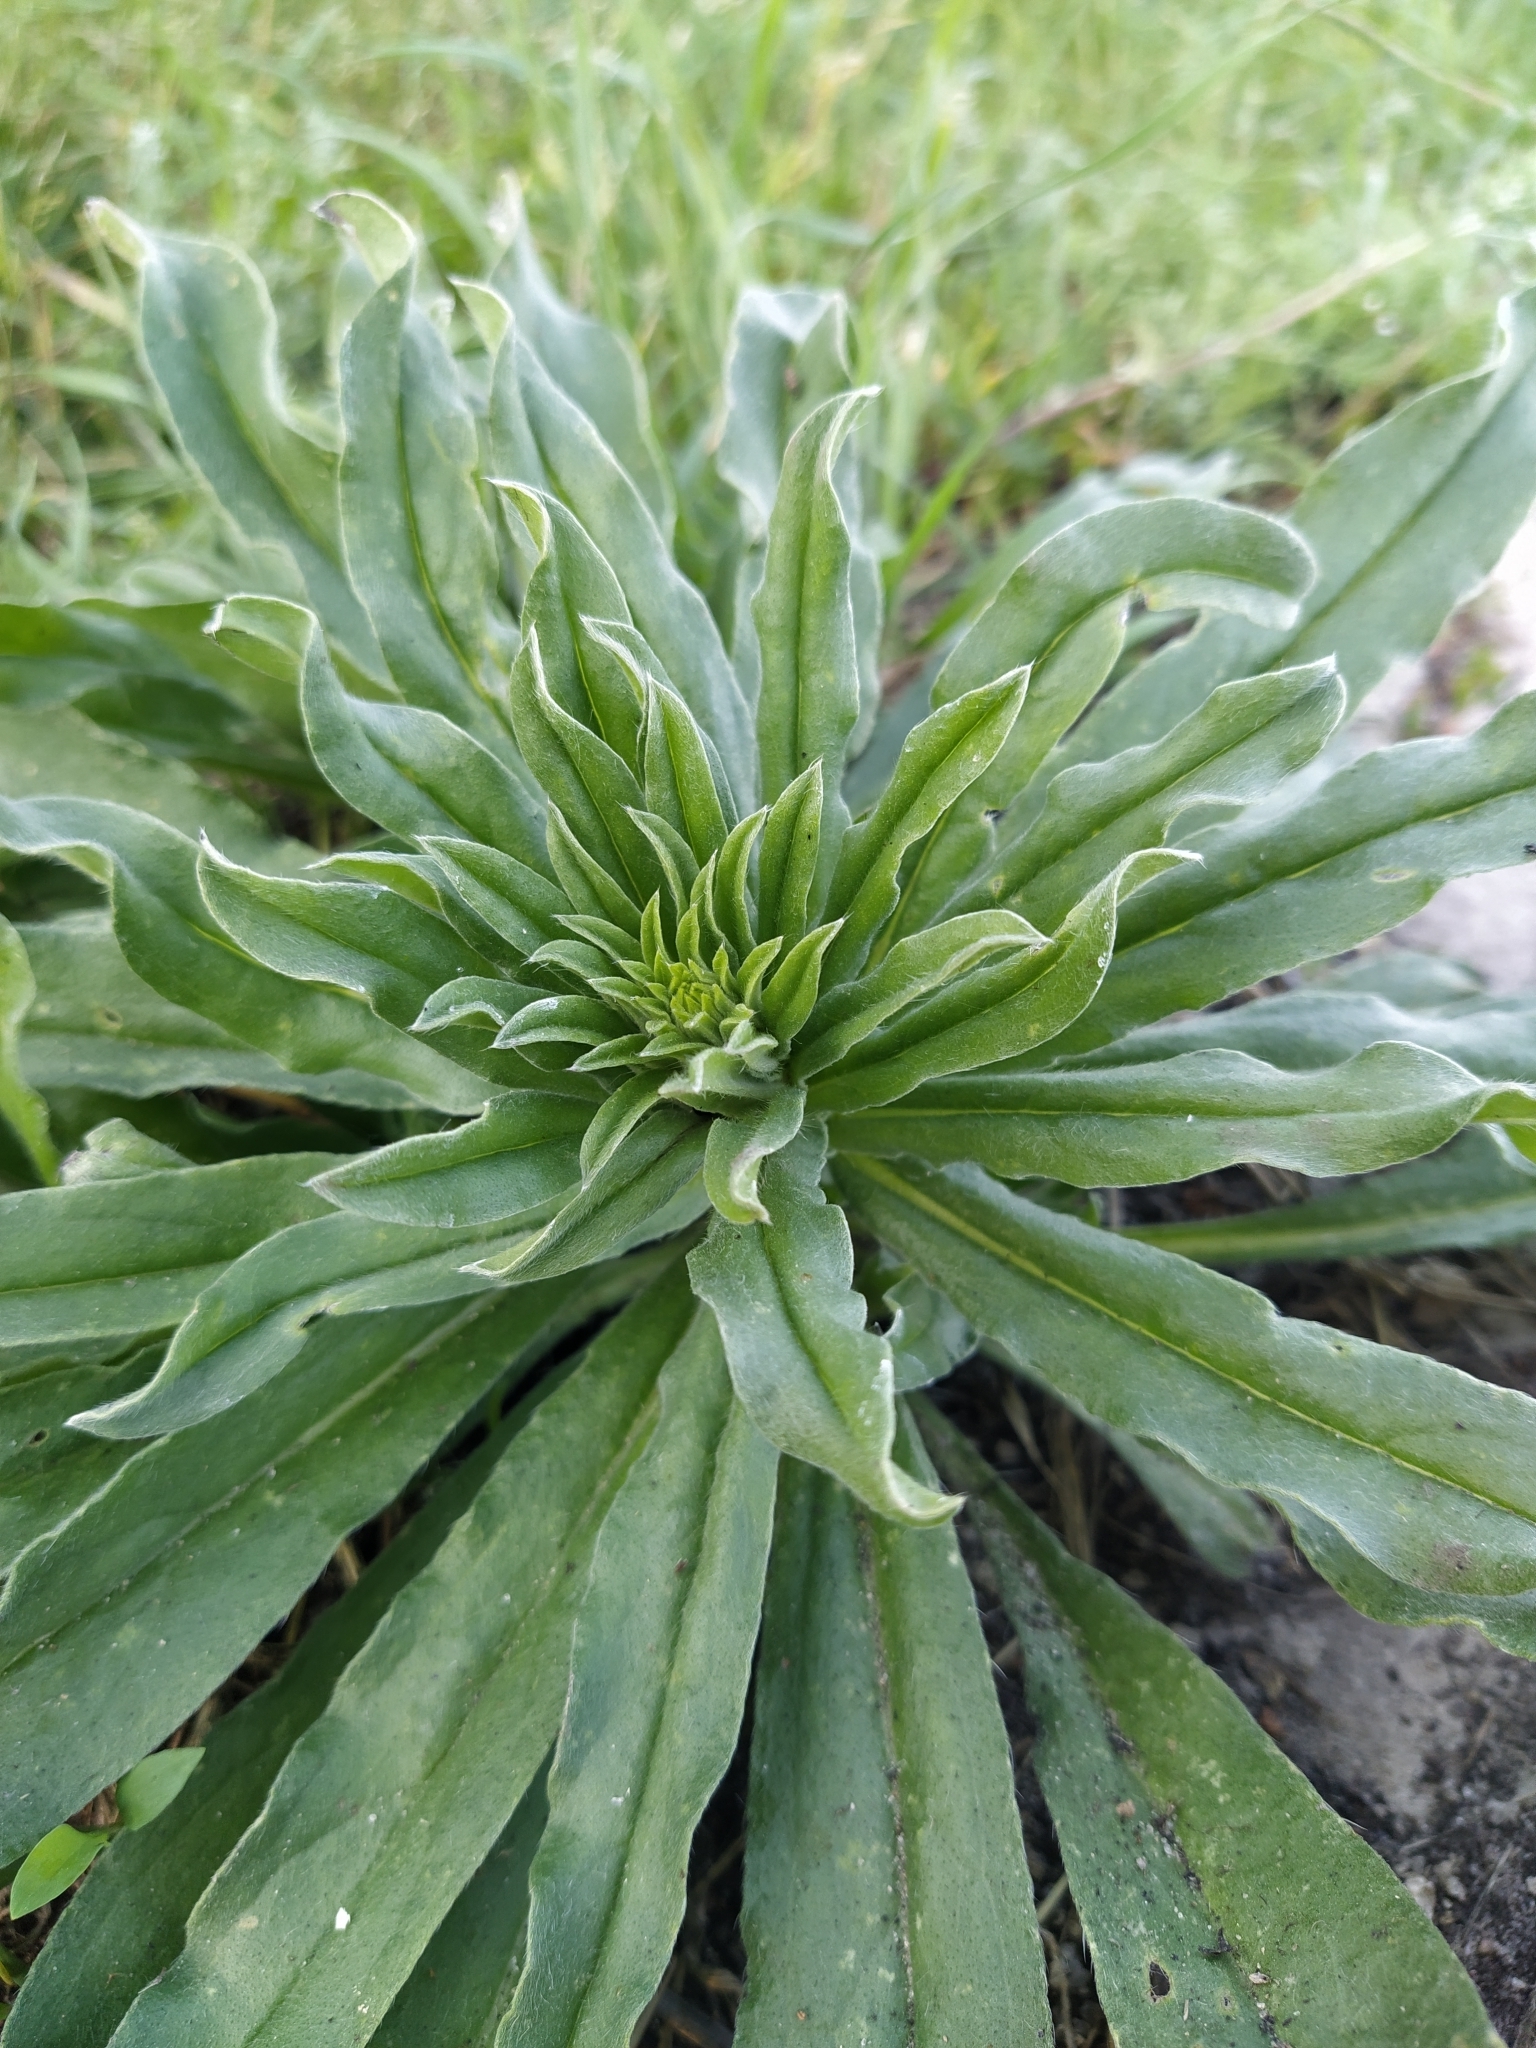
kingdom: Plantae
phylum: Tracheophyta
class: Magnoliopsida
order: Boraginales
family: Boraginaceae
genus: Echium
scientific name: Echium vulgare
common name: Common viper's bugloss
